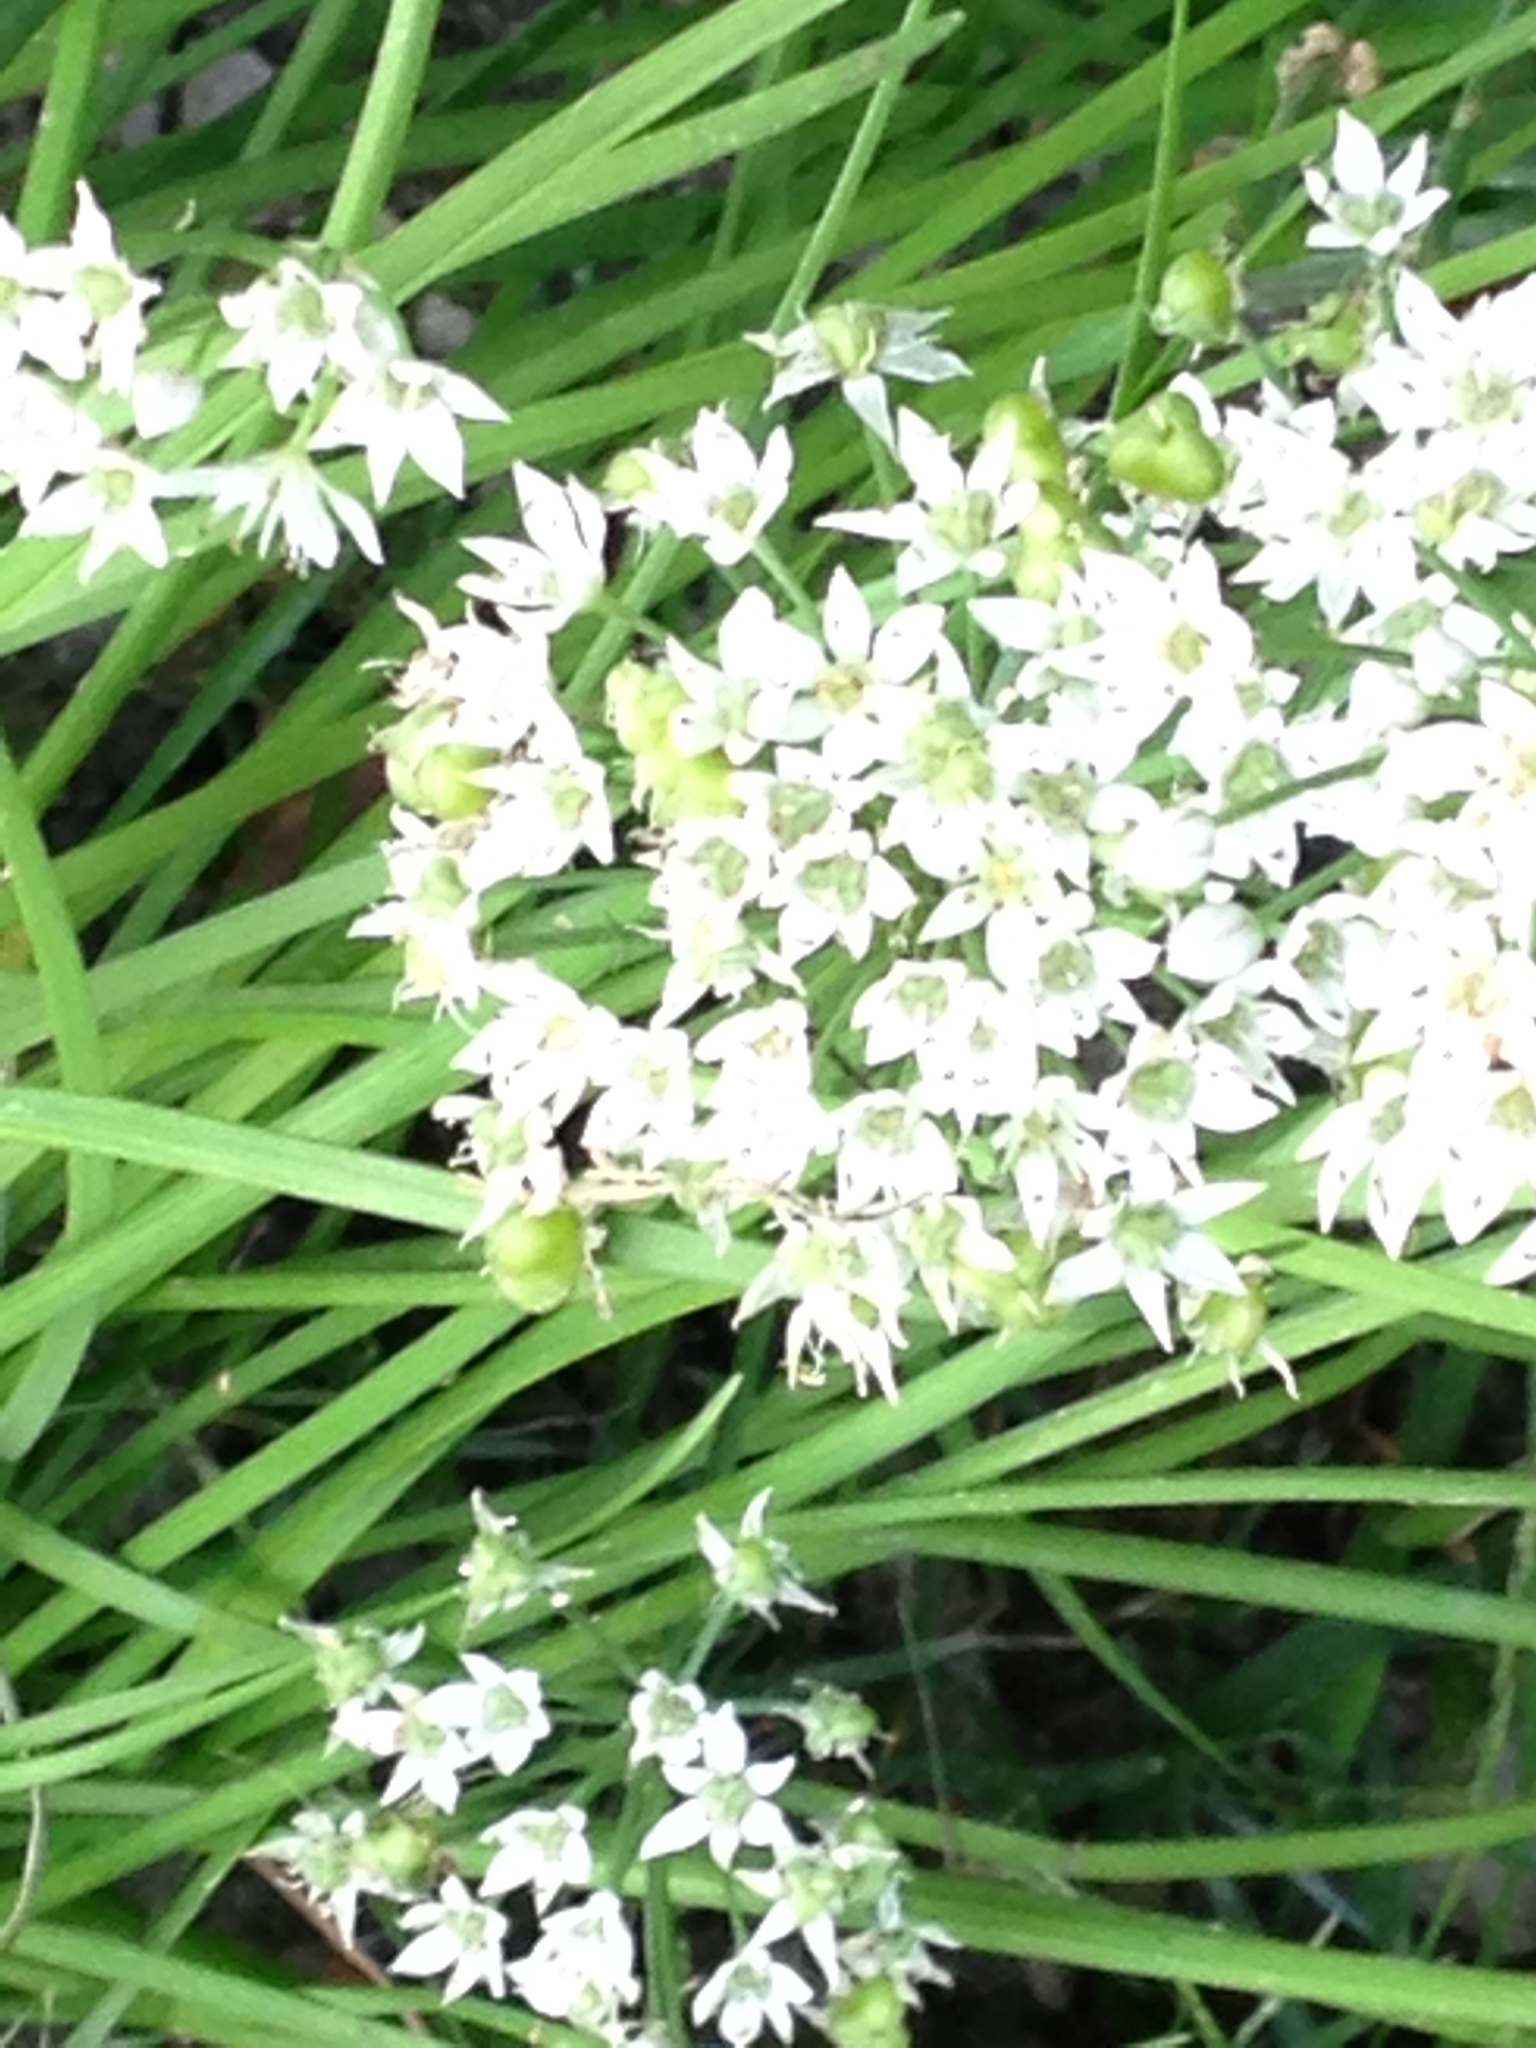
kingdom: Plantae
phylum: Tracheophyta
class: Liliopsida
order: Asparagales
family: Amaryllidaceae
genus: Allium
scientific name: Allium tuberosum
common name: Chinese chives
